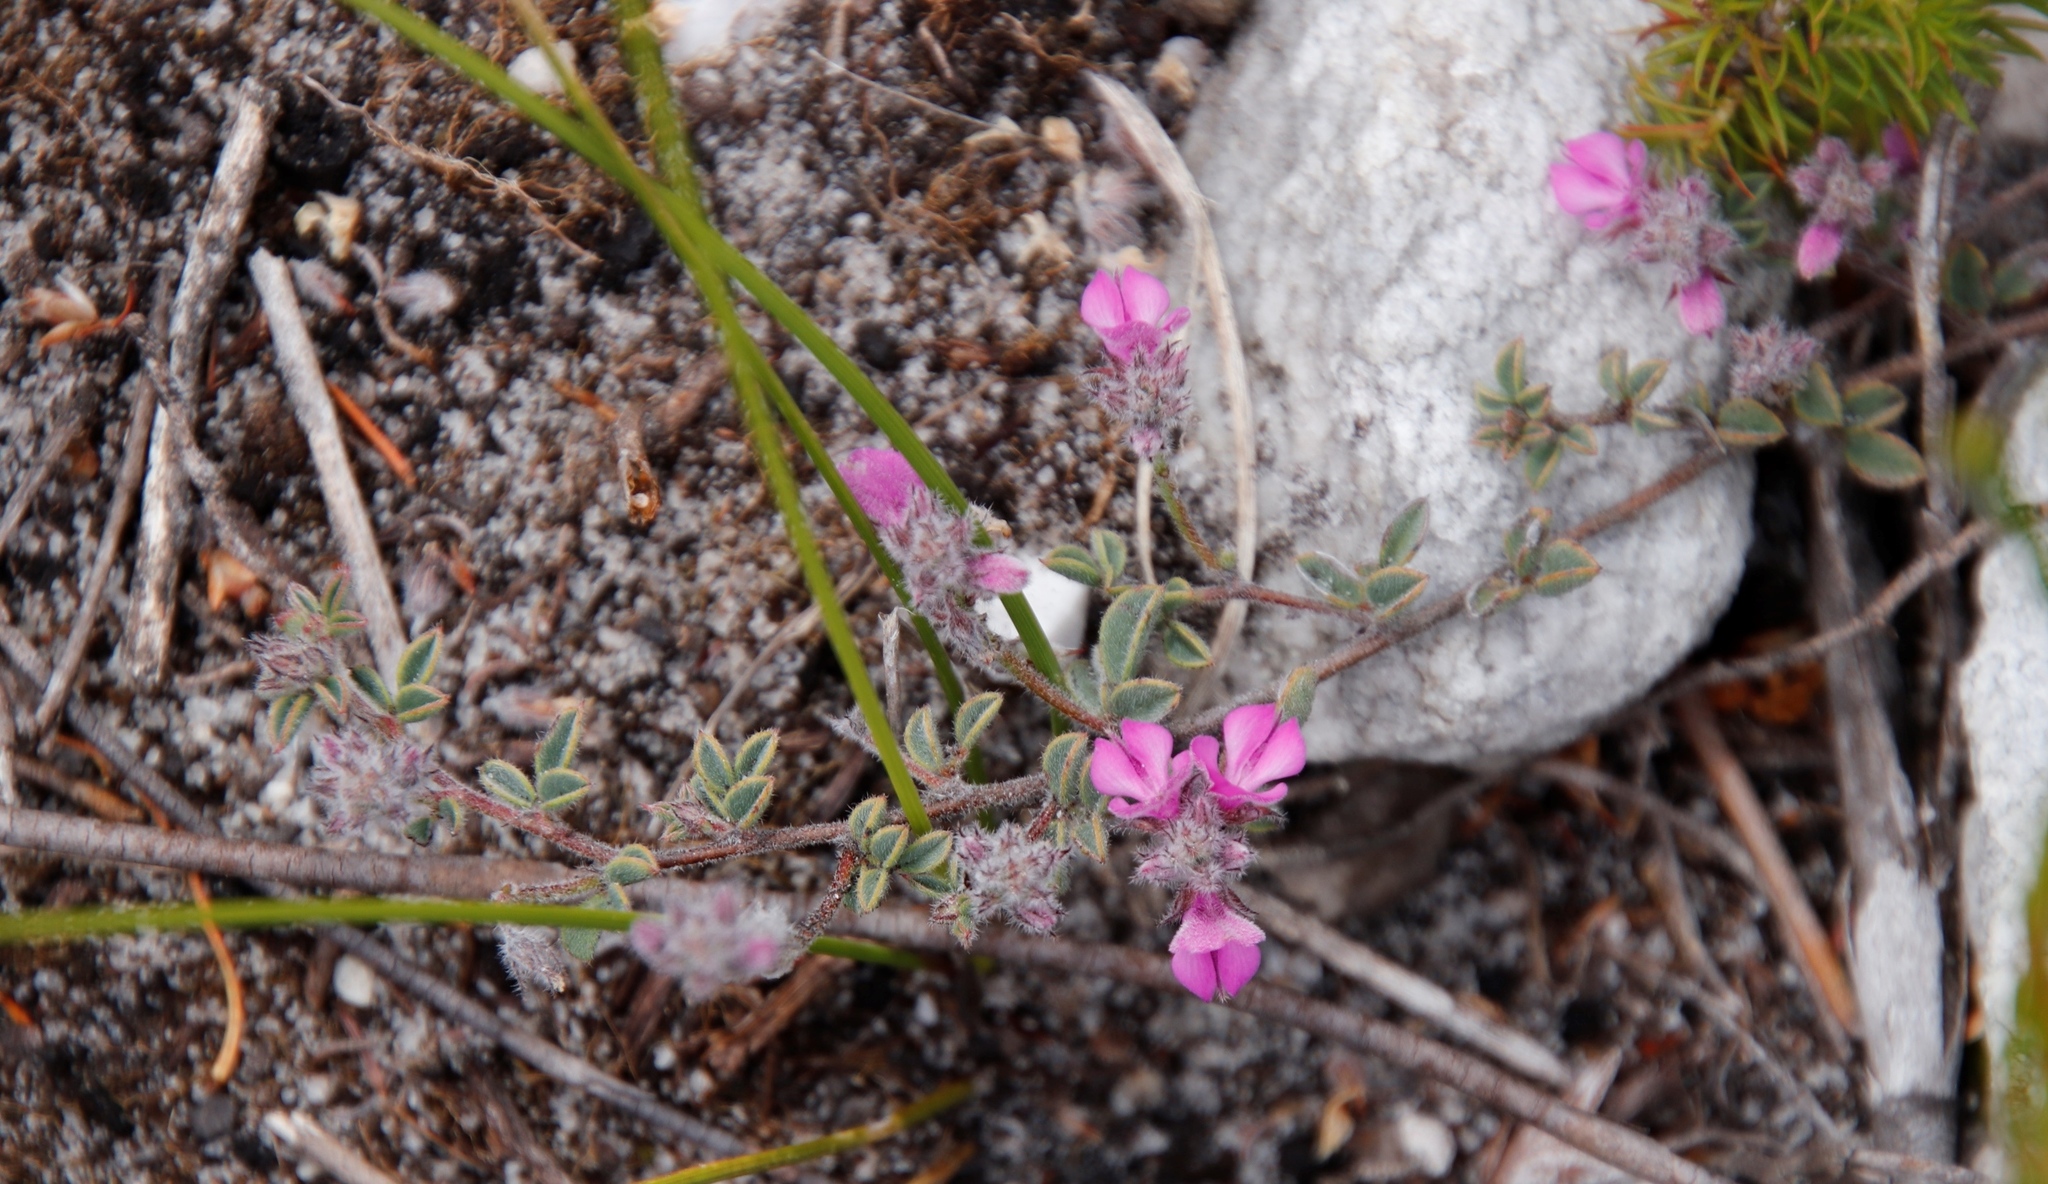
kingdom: Plantae
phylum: Tracheophyta
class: Magnoliopsida
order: Fabales
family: Fabaceae
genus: Indigofera
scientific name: Indigofera
